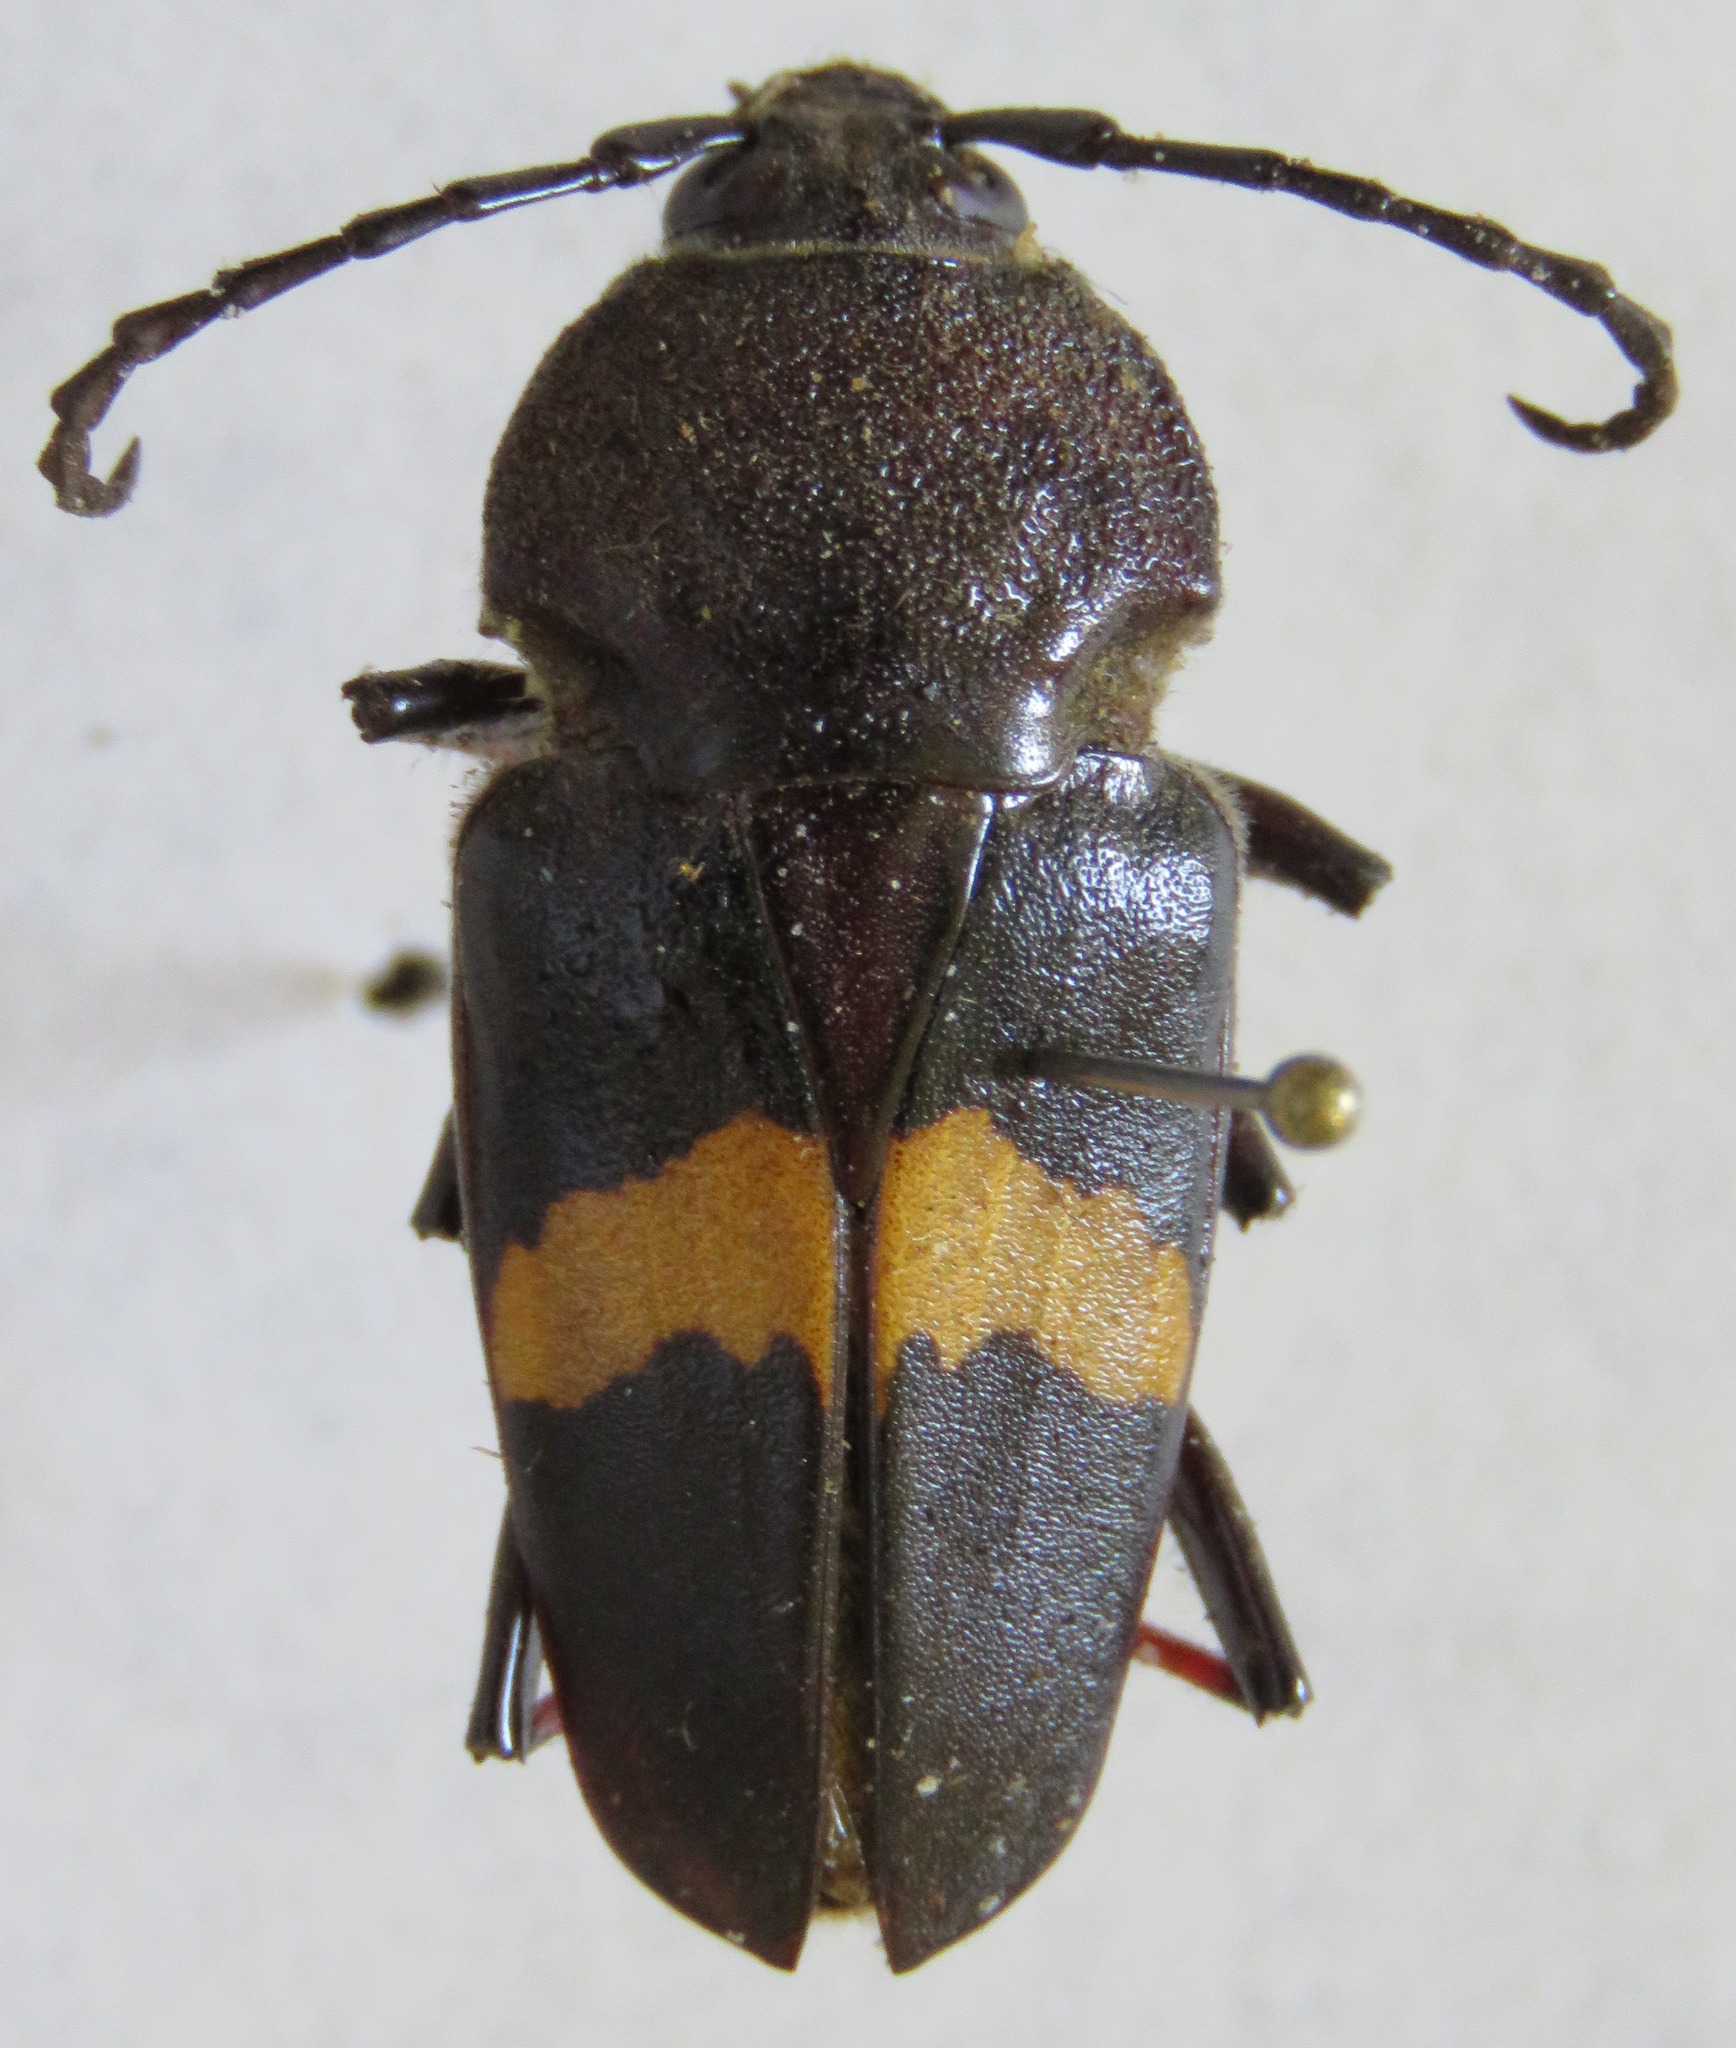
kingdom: Animalia
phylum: Arthropoda
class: Insecta
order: Coleoptera
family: Cerambycidae
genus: Megaderus
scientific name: Megaderus stigma
